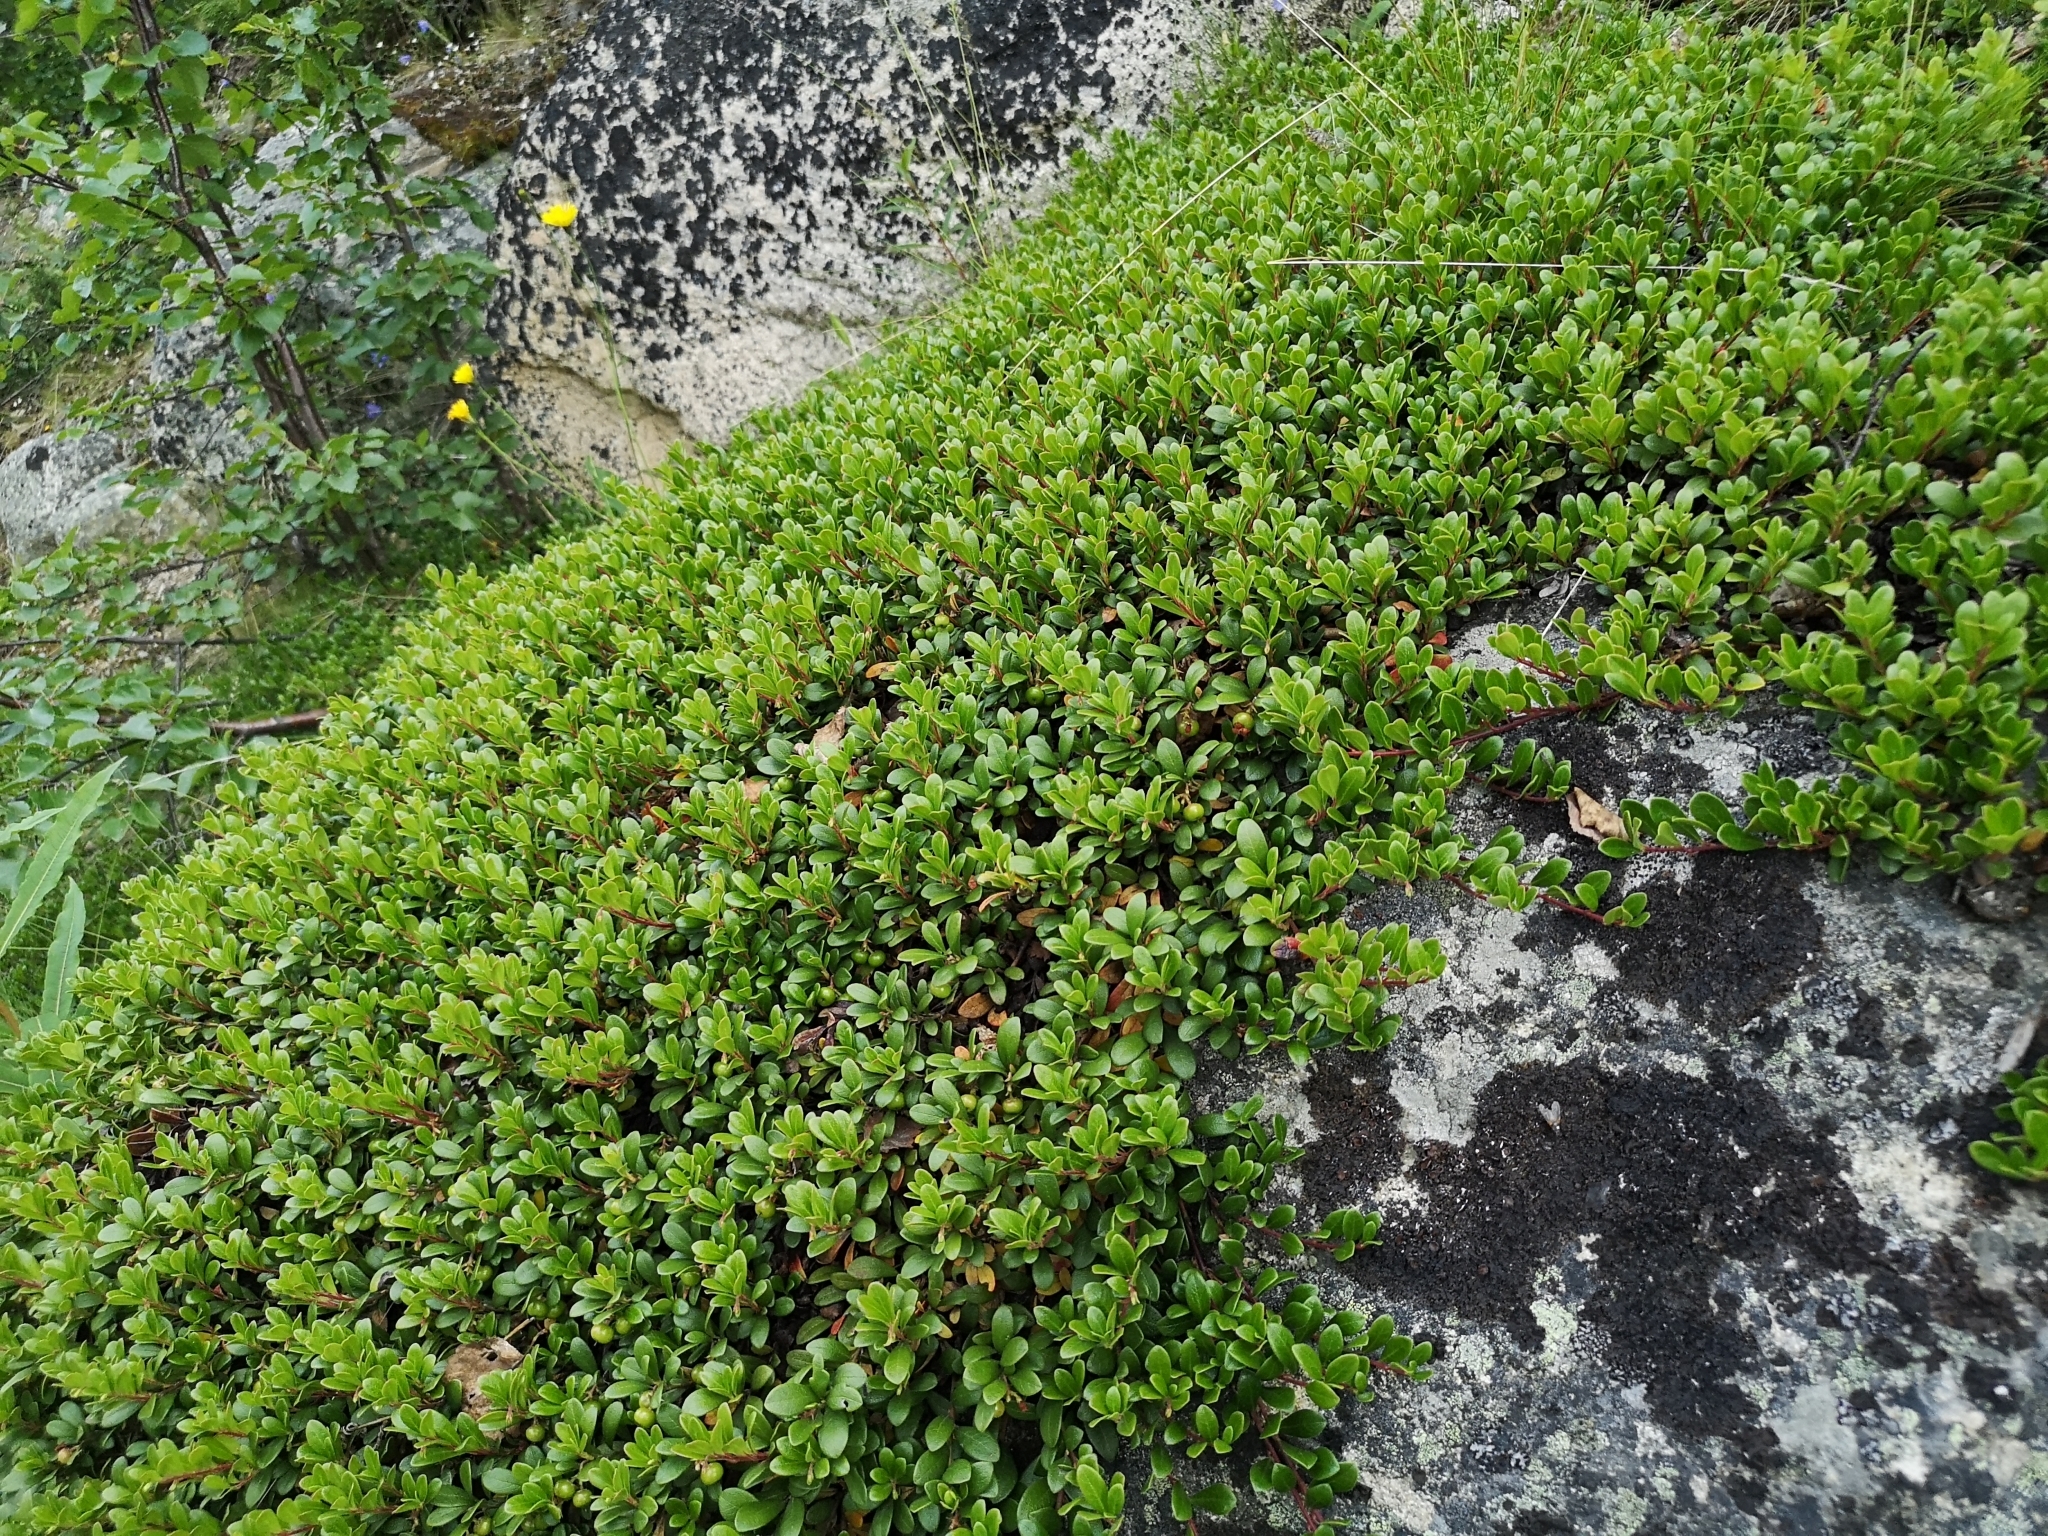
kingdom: Plantae
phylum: Tracheophyta
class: Magnoliopsida
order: Ericales
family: Ericaceae
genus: Arctostaphylos
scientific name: Arctostaphylos uva-ursi
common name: Bearberry
